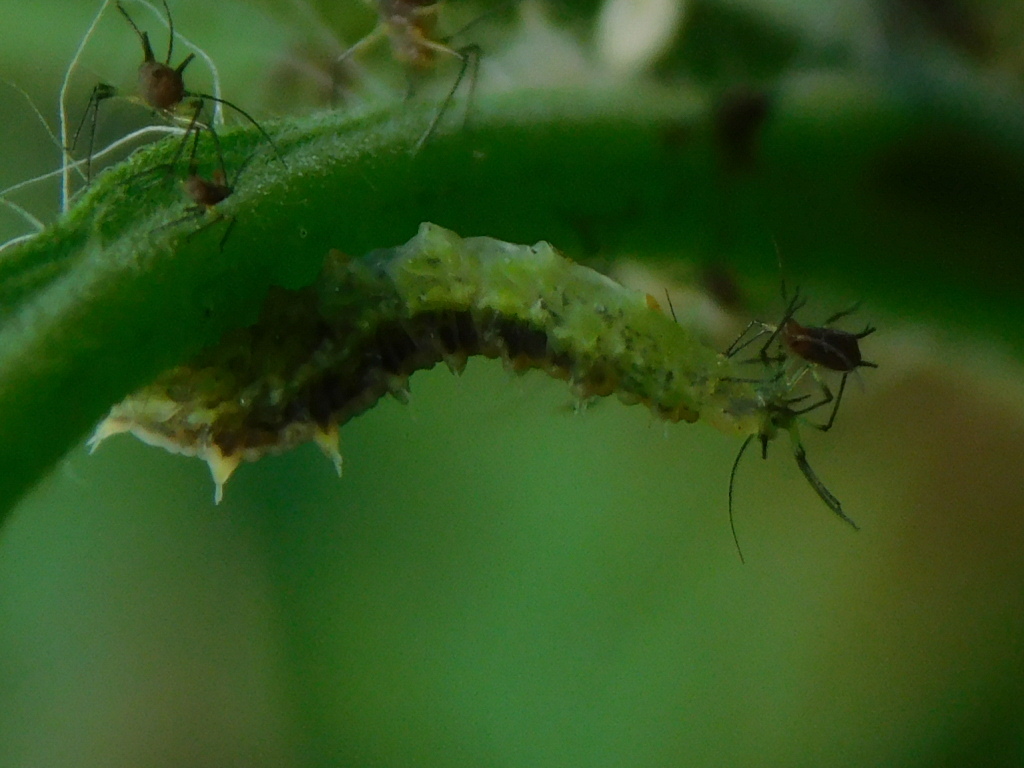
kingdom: Animalia
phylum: Arthropoda
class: Insecta
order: Diptera
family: Syrphidae
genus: Dioprosopa
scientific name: Dioprosopa clavatus
